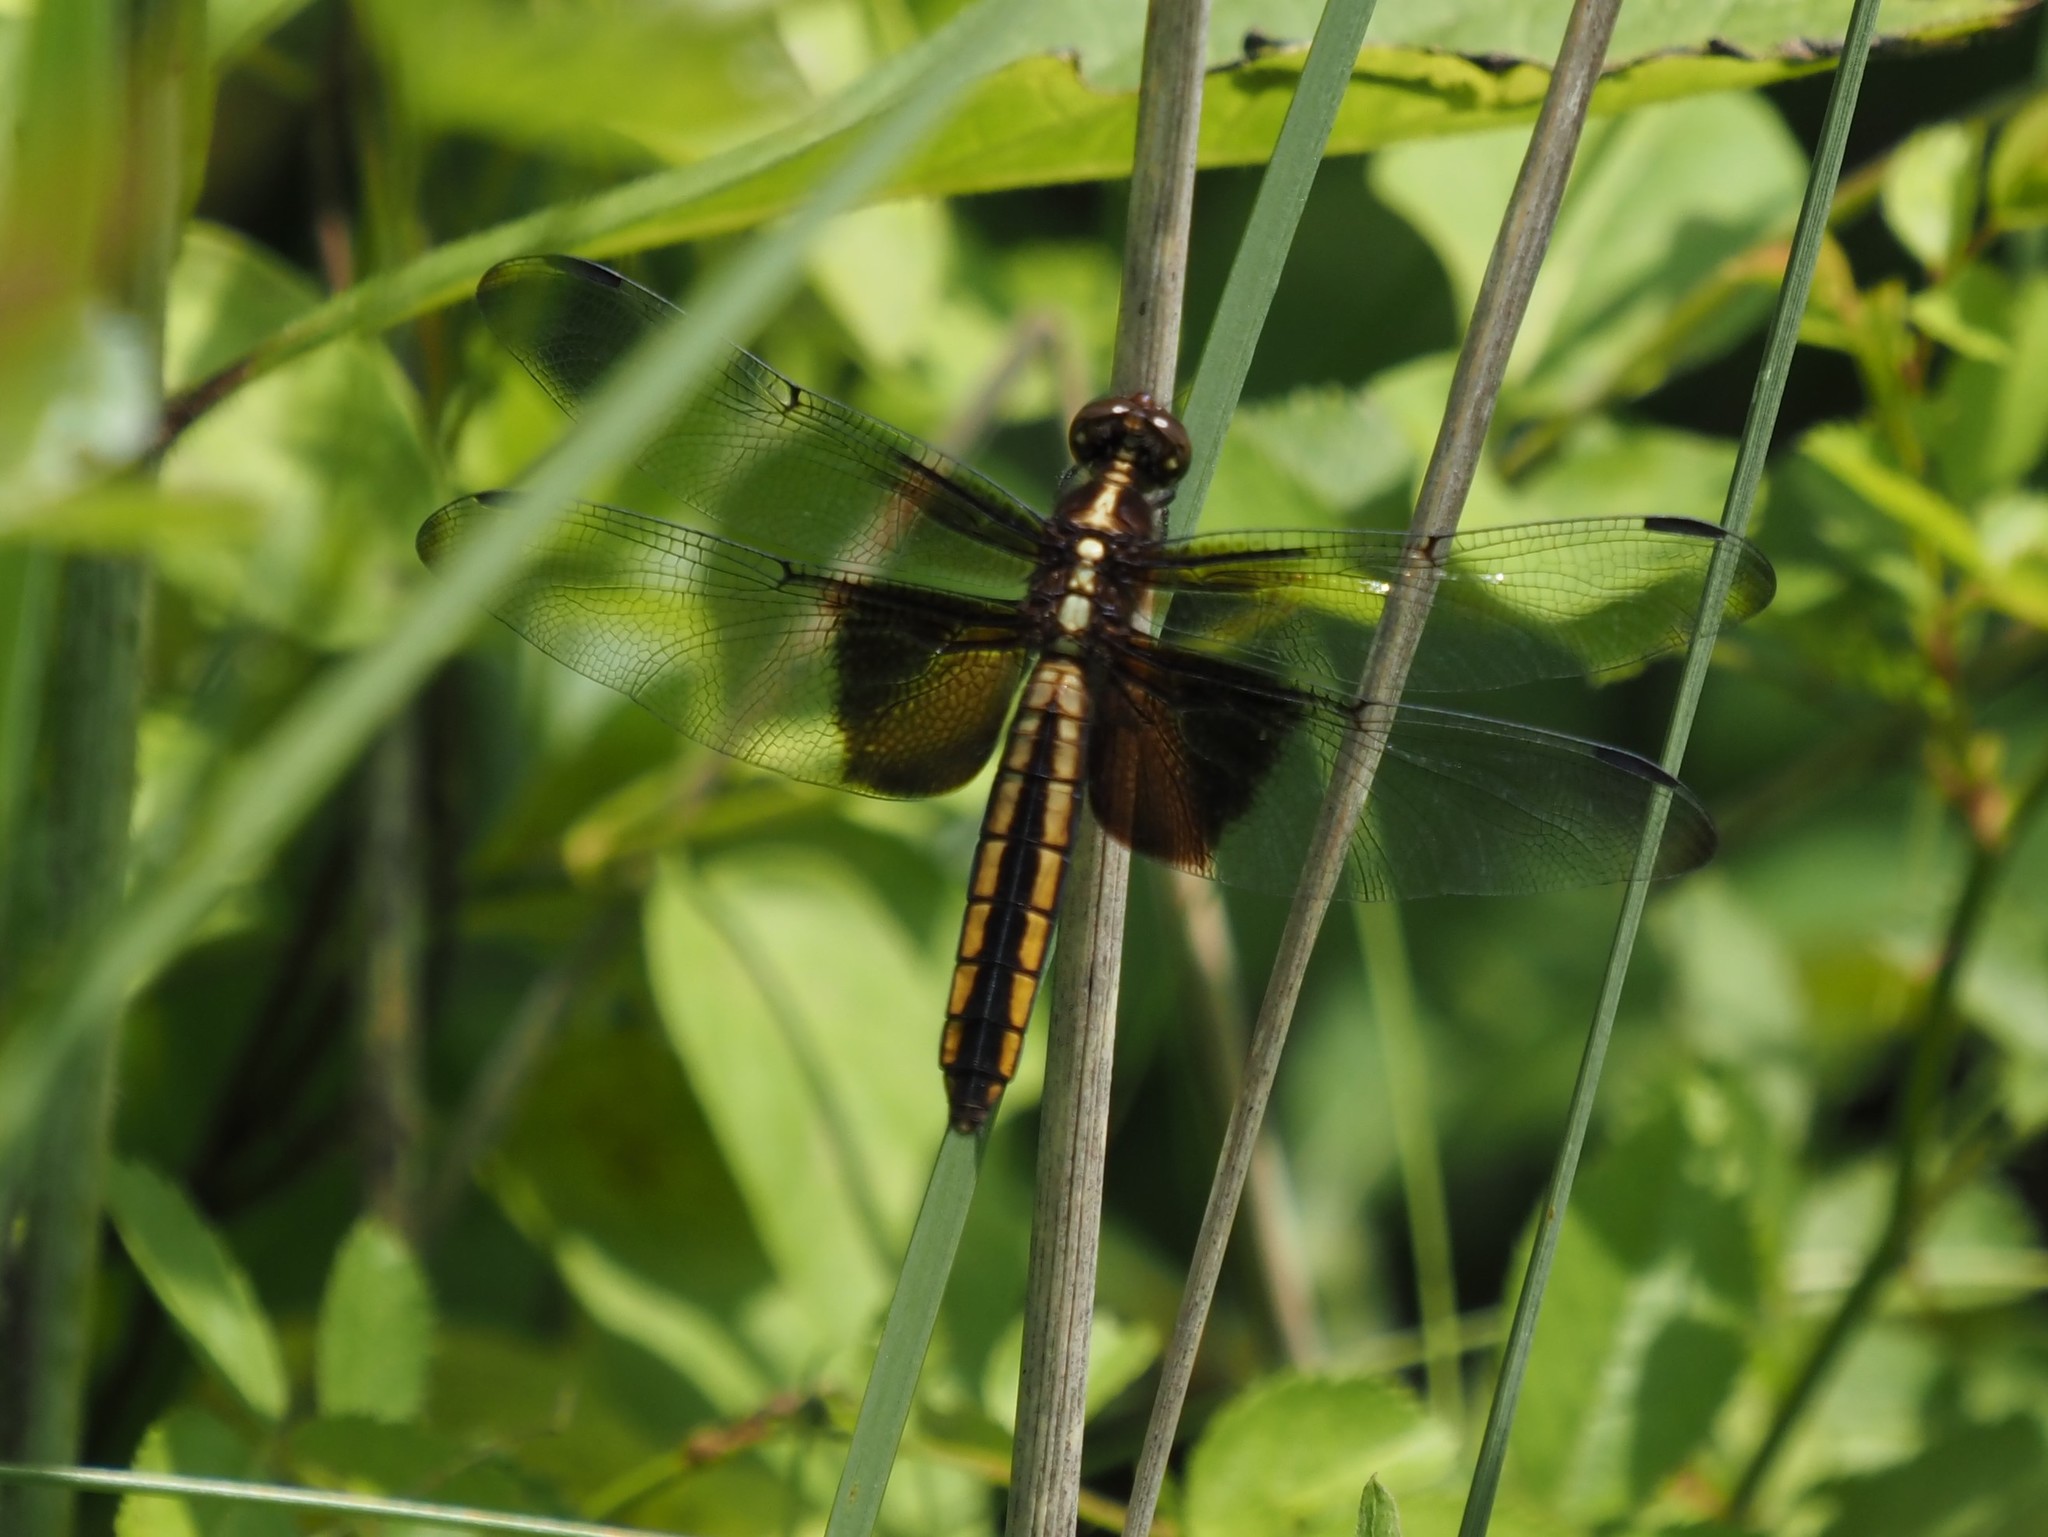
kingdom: Animalia
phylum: Arthropoda
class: Insecta
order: Odonata
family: Libellulidae
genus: Libellula
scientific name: Libellula luctuosa
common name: Widow skimmer
